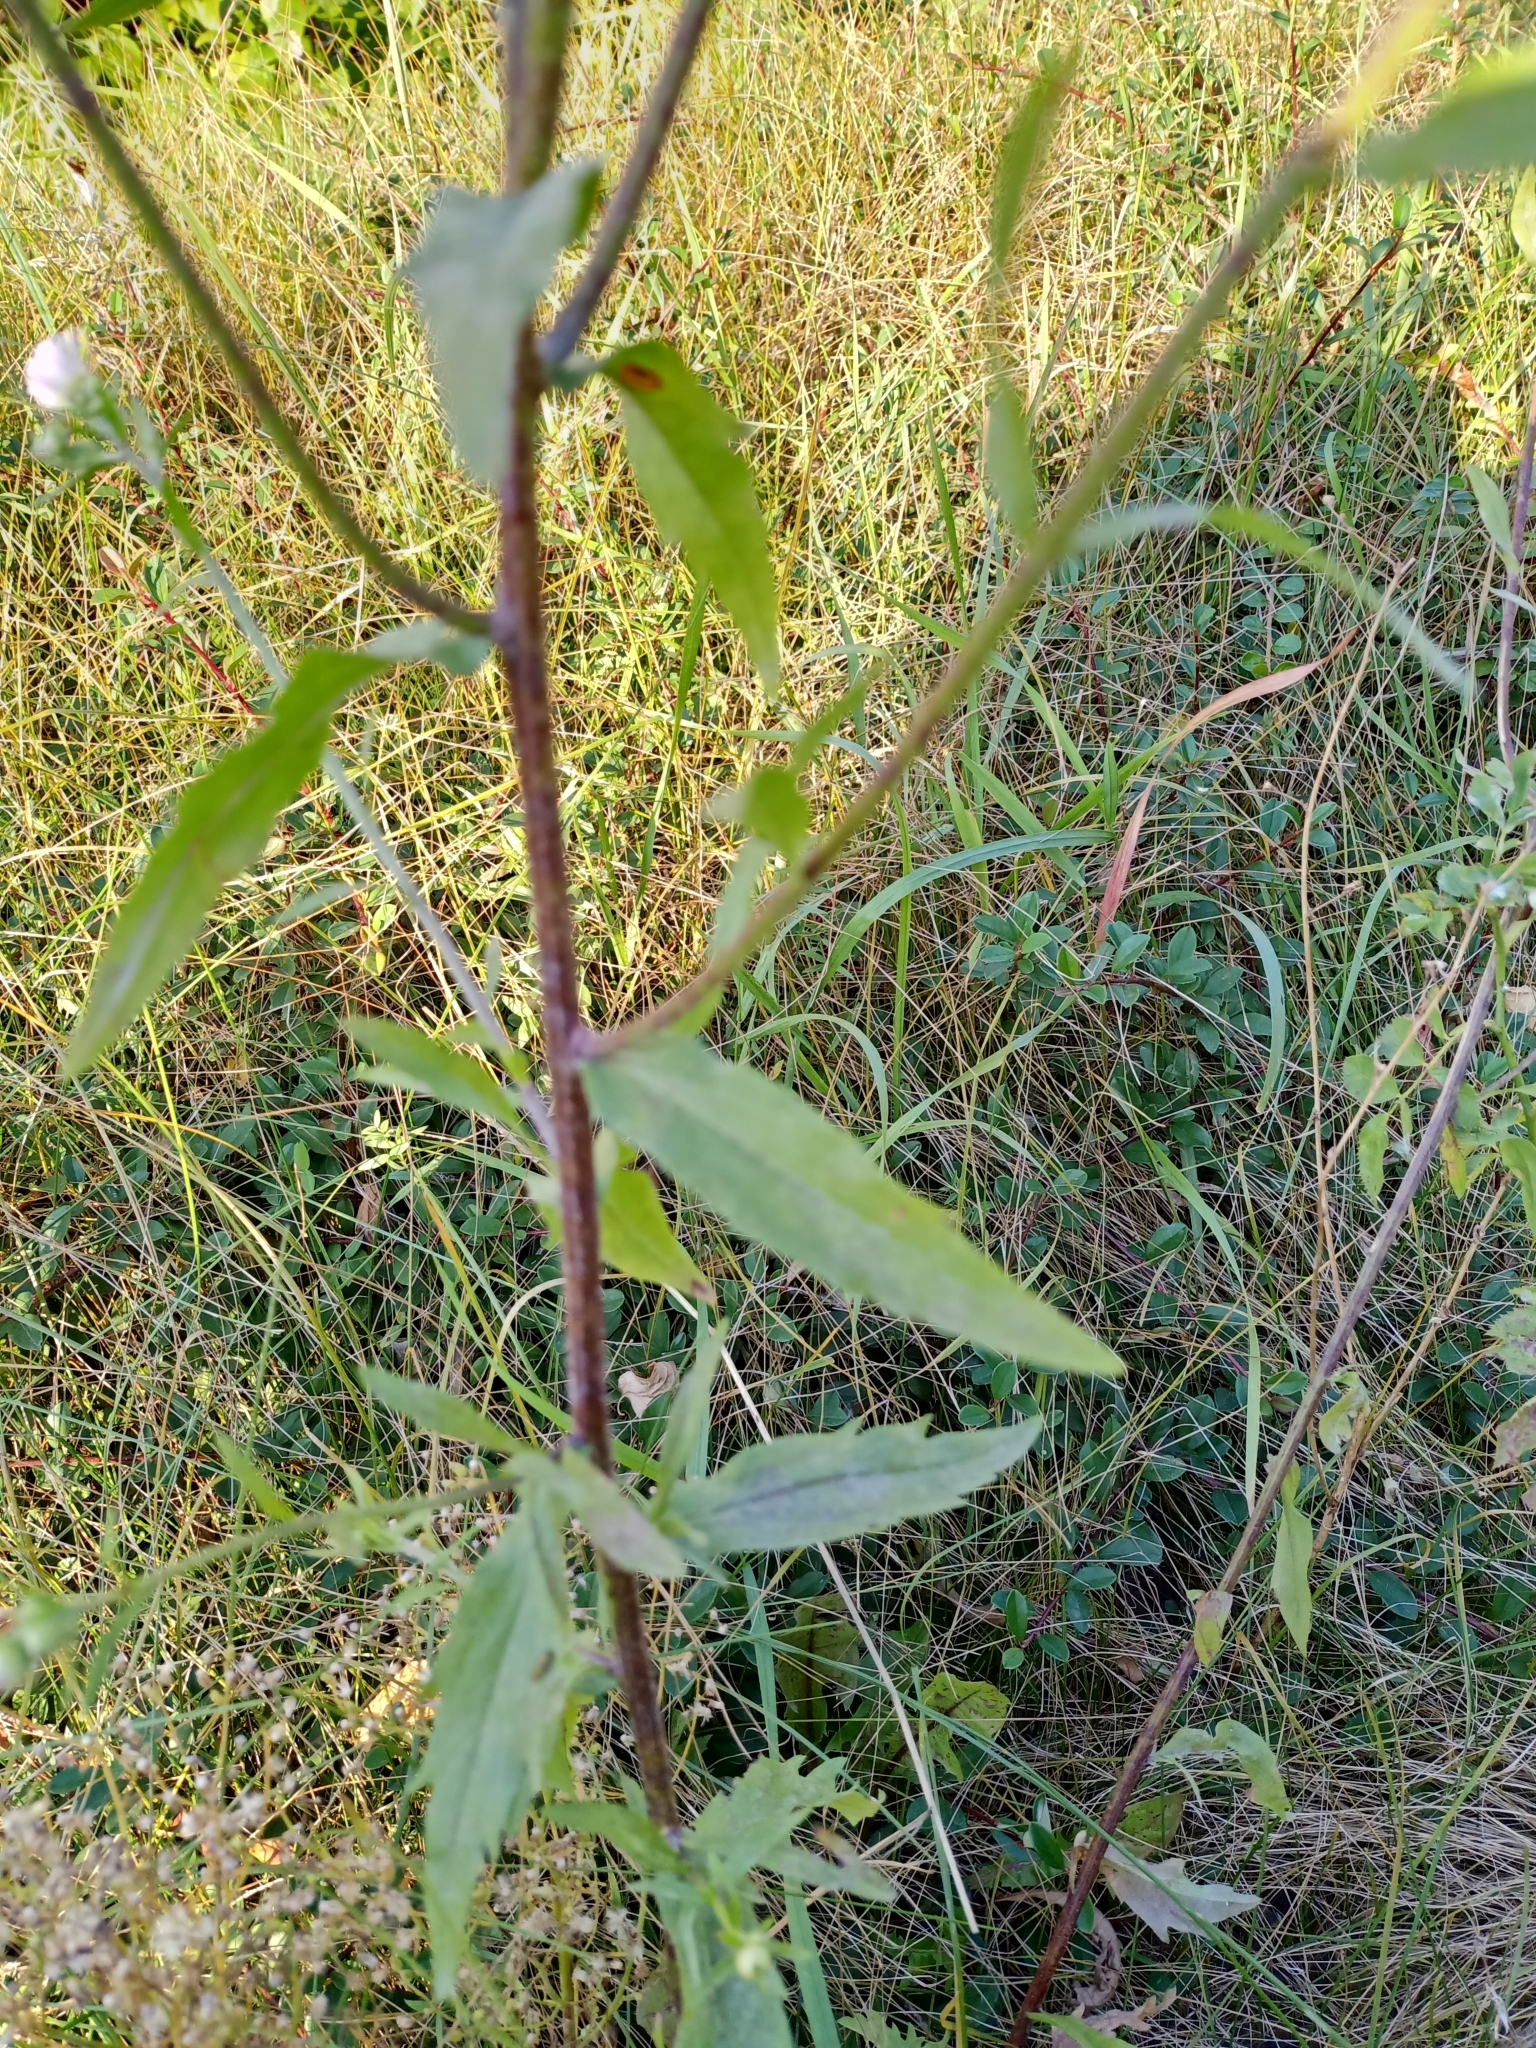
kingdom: Plantae
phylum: Tracheophyta
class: Magnoliopsida
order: Asterales
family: Asteraceae
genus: Erigeron
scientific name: Erigeron annuus
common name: Tall fleabane
